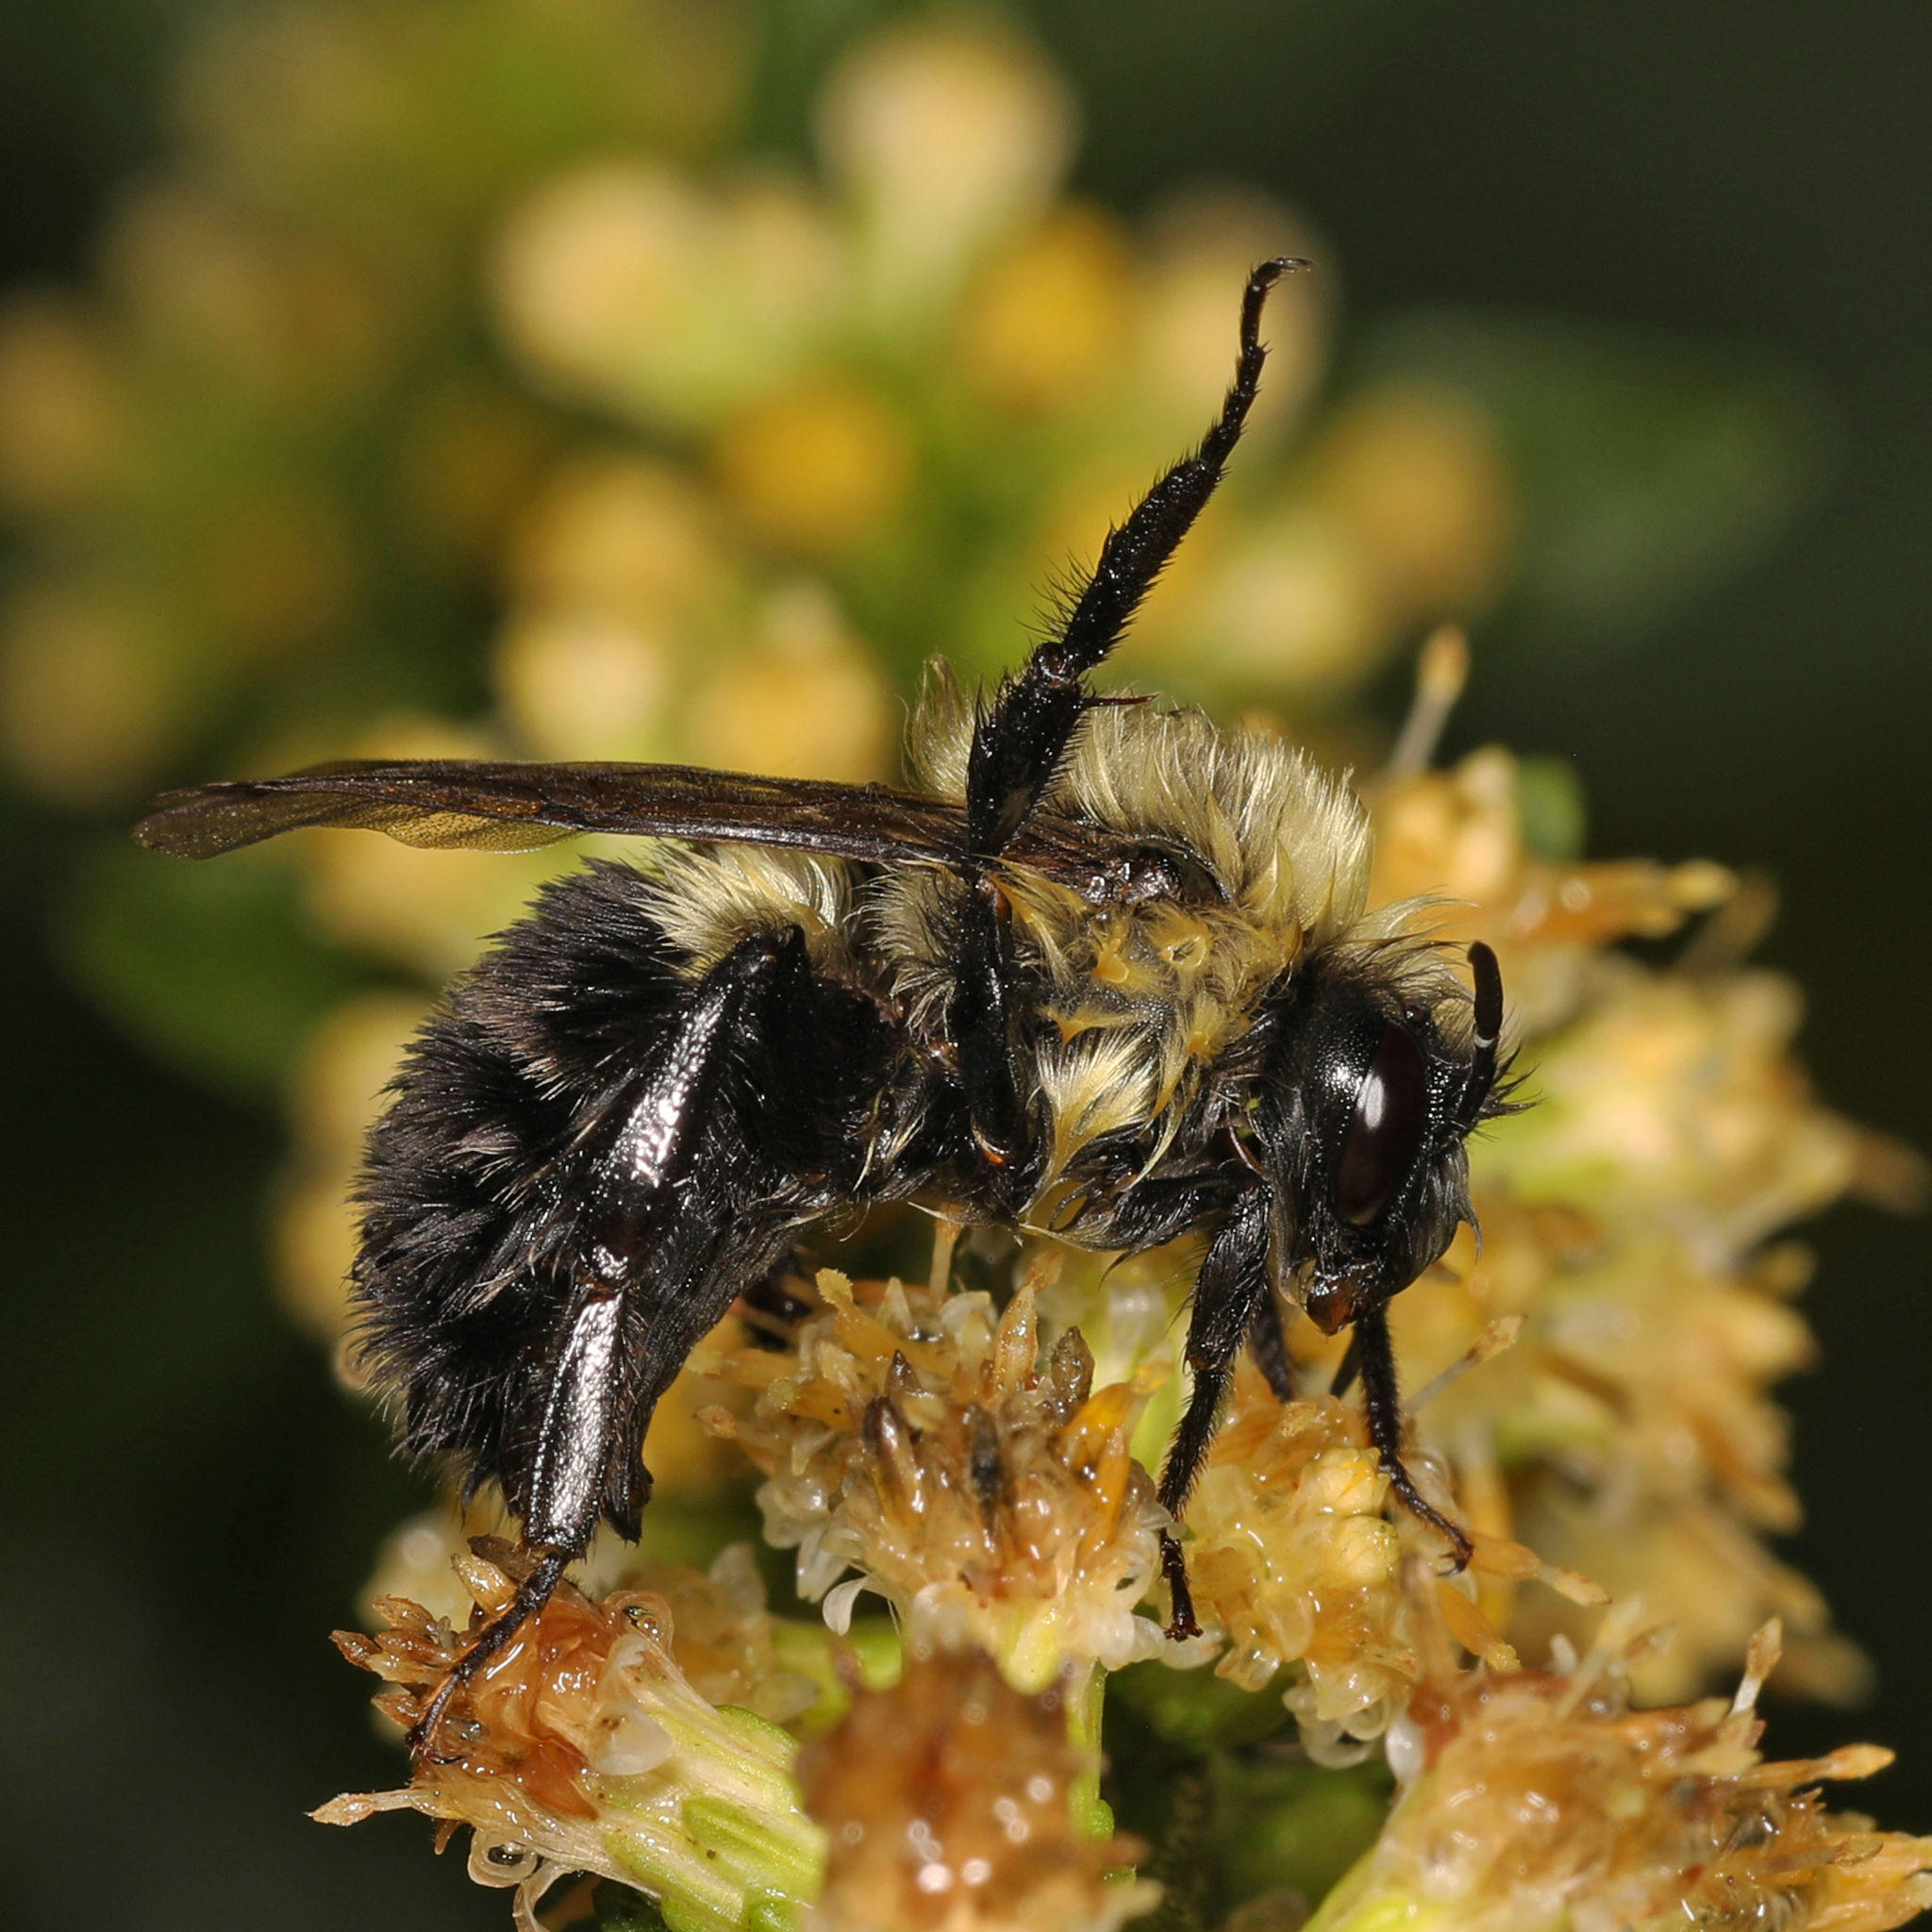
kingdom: Animalia
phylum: Arthropoda
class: Insecta
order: Hymenoptera
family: Apidae
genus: Bombus
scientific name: Bombus impatiens
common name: Common eastern bumble bee
